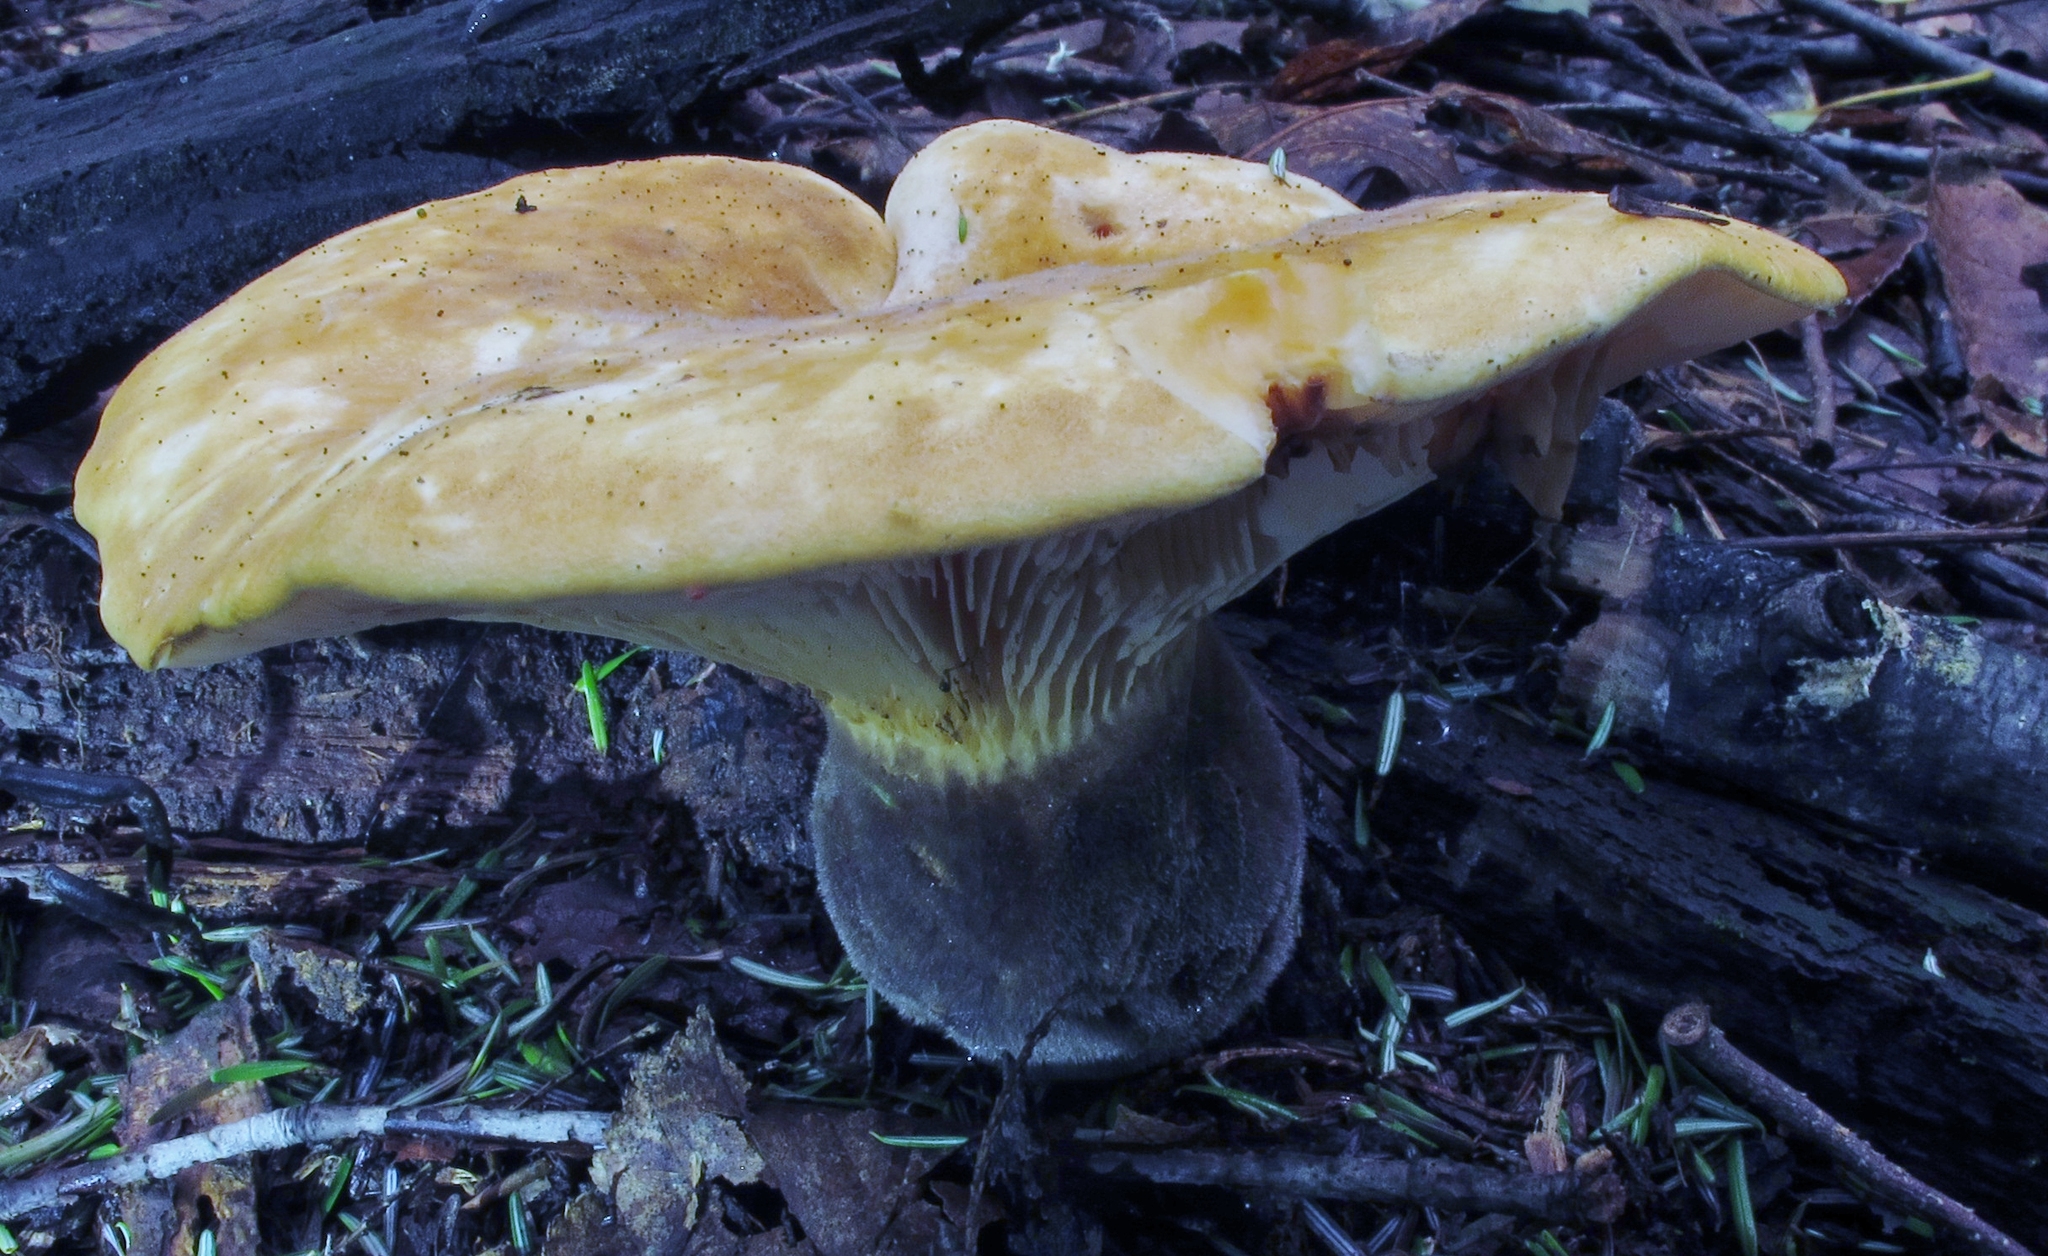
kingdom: Fungi
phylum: Basidiomycota
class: Agaricomycetes
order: Boletales
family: Tapinellaceae
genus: Tapinella
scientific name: Tapinella atrotomentosa
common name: Velvet rollrim
